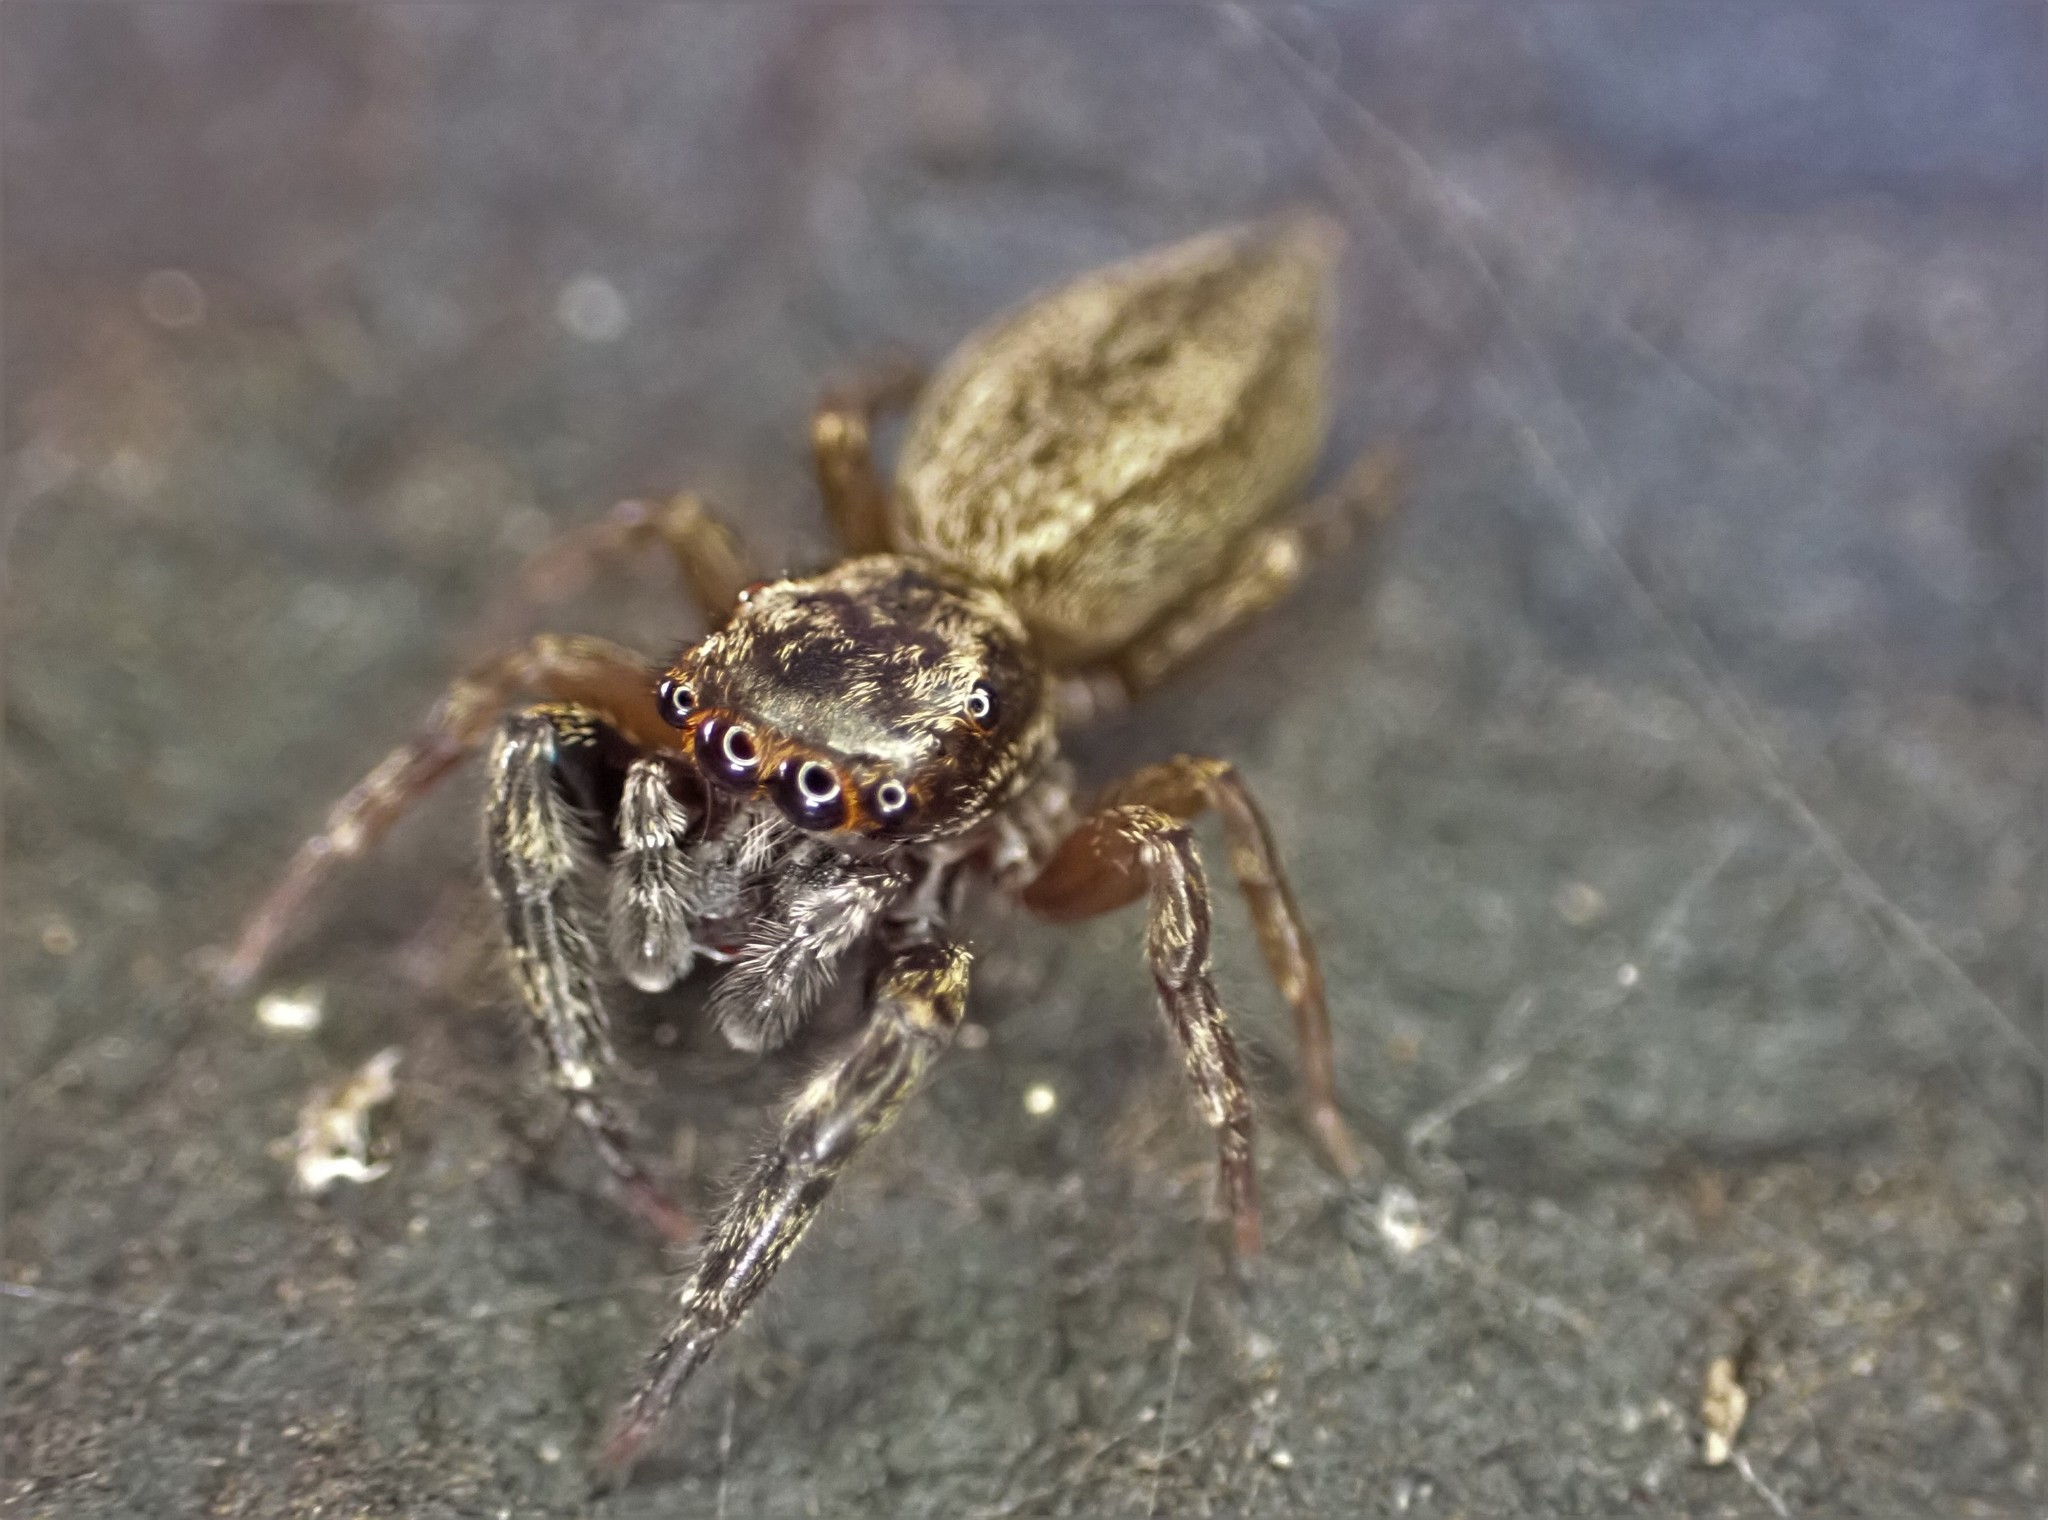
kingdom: Animalia
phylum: Arthropoda
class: Arachnida
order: Araneae
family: Salticidae
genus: Trite
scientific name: Trite auricoma
